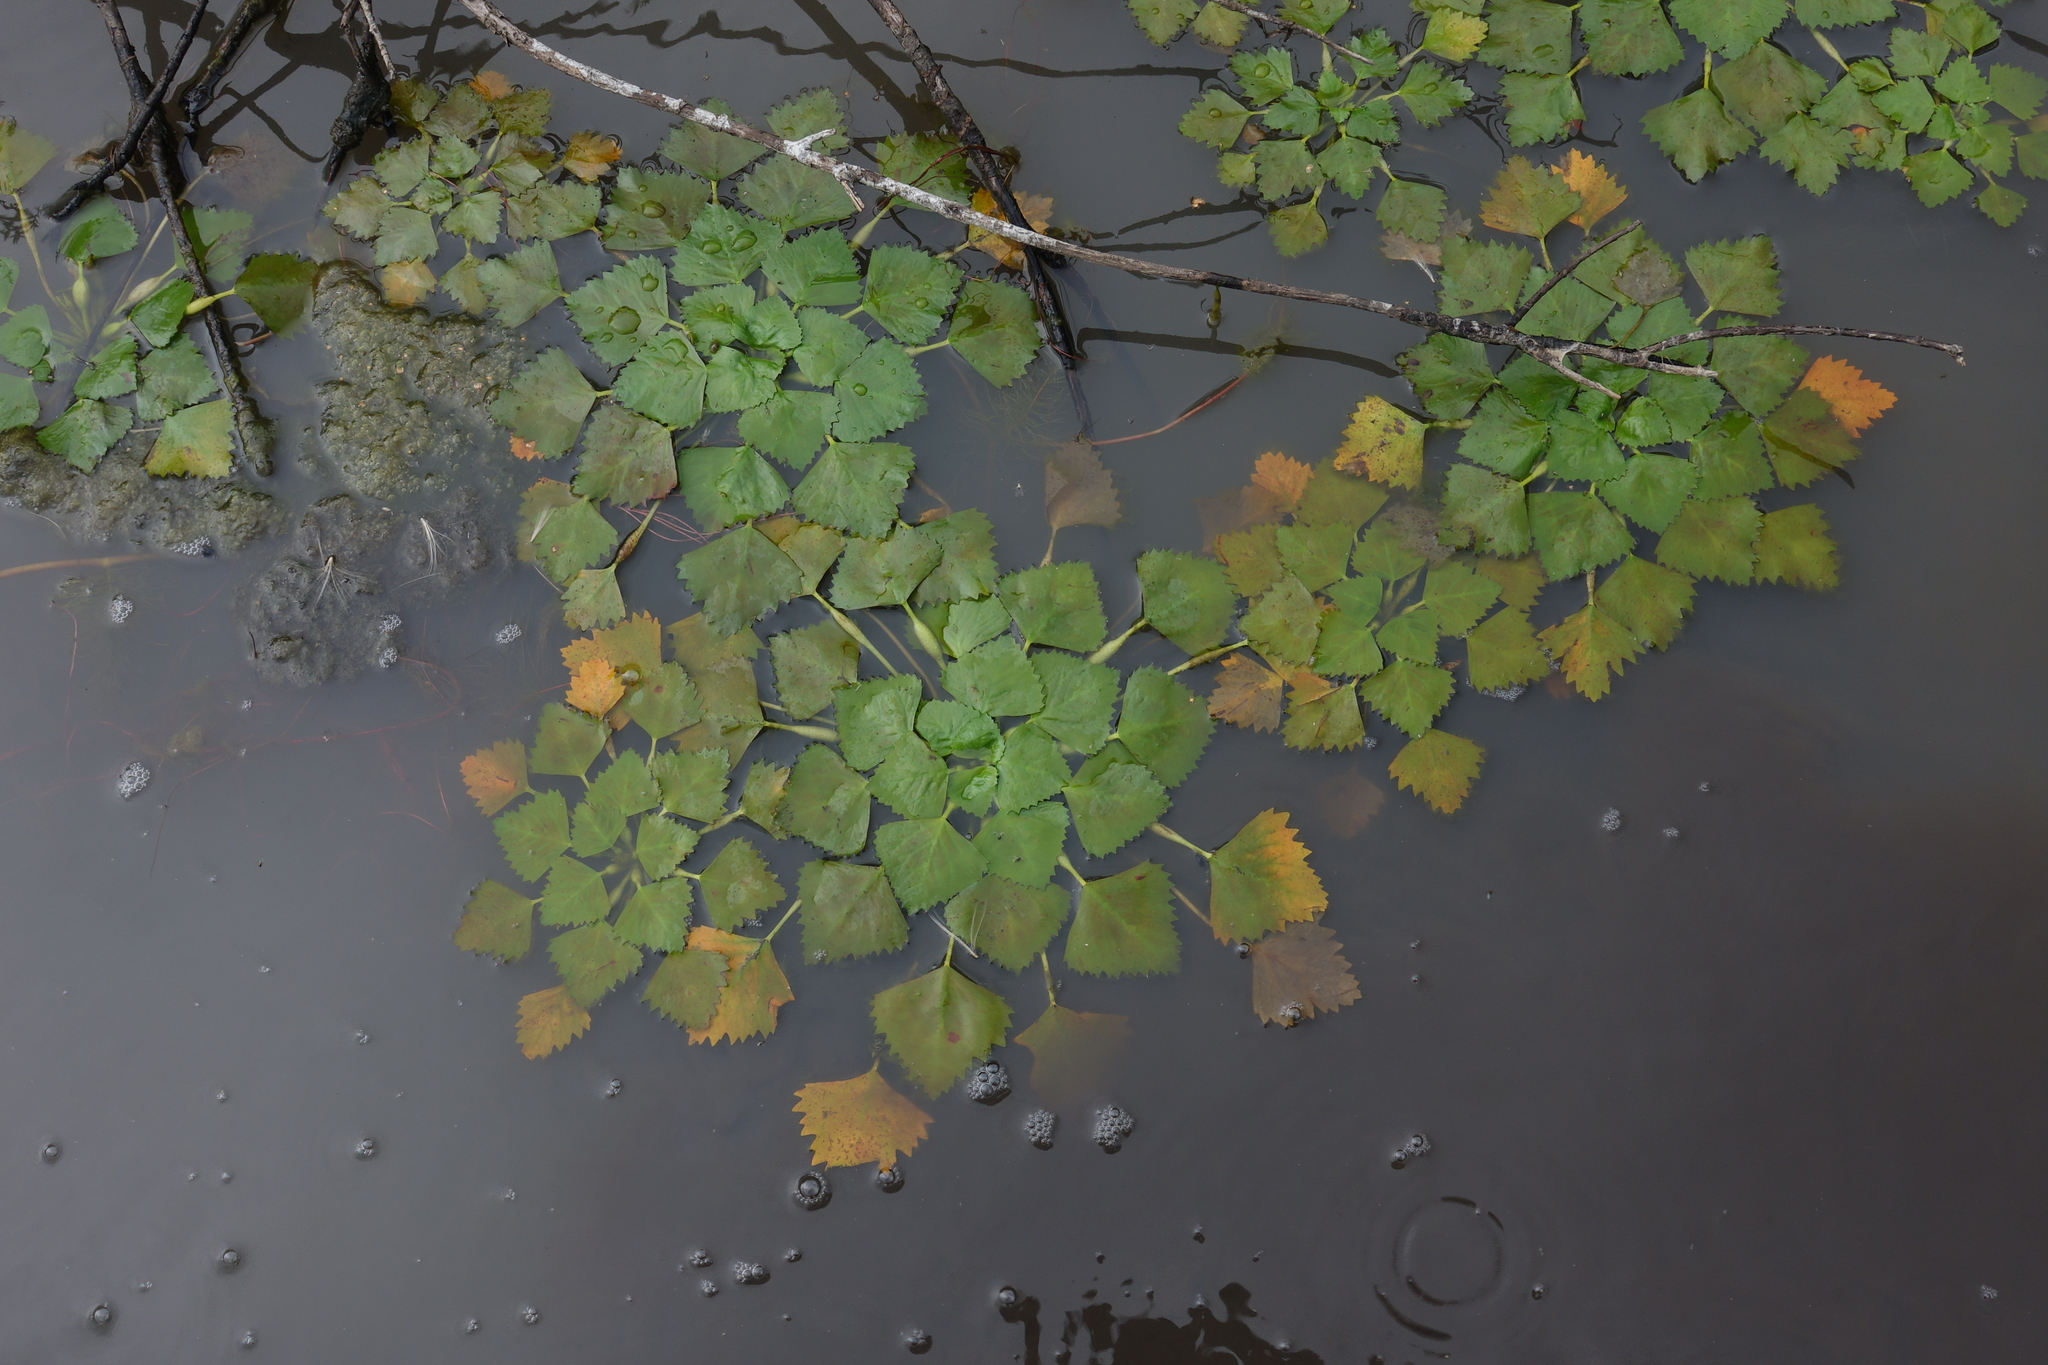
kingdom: Plantae
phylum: Tracheophyta
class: Magnoliopsida
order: Myrtales
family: Lythraceae
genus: Trapa
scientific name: Trapa natans
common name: Water chestnut
